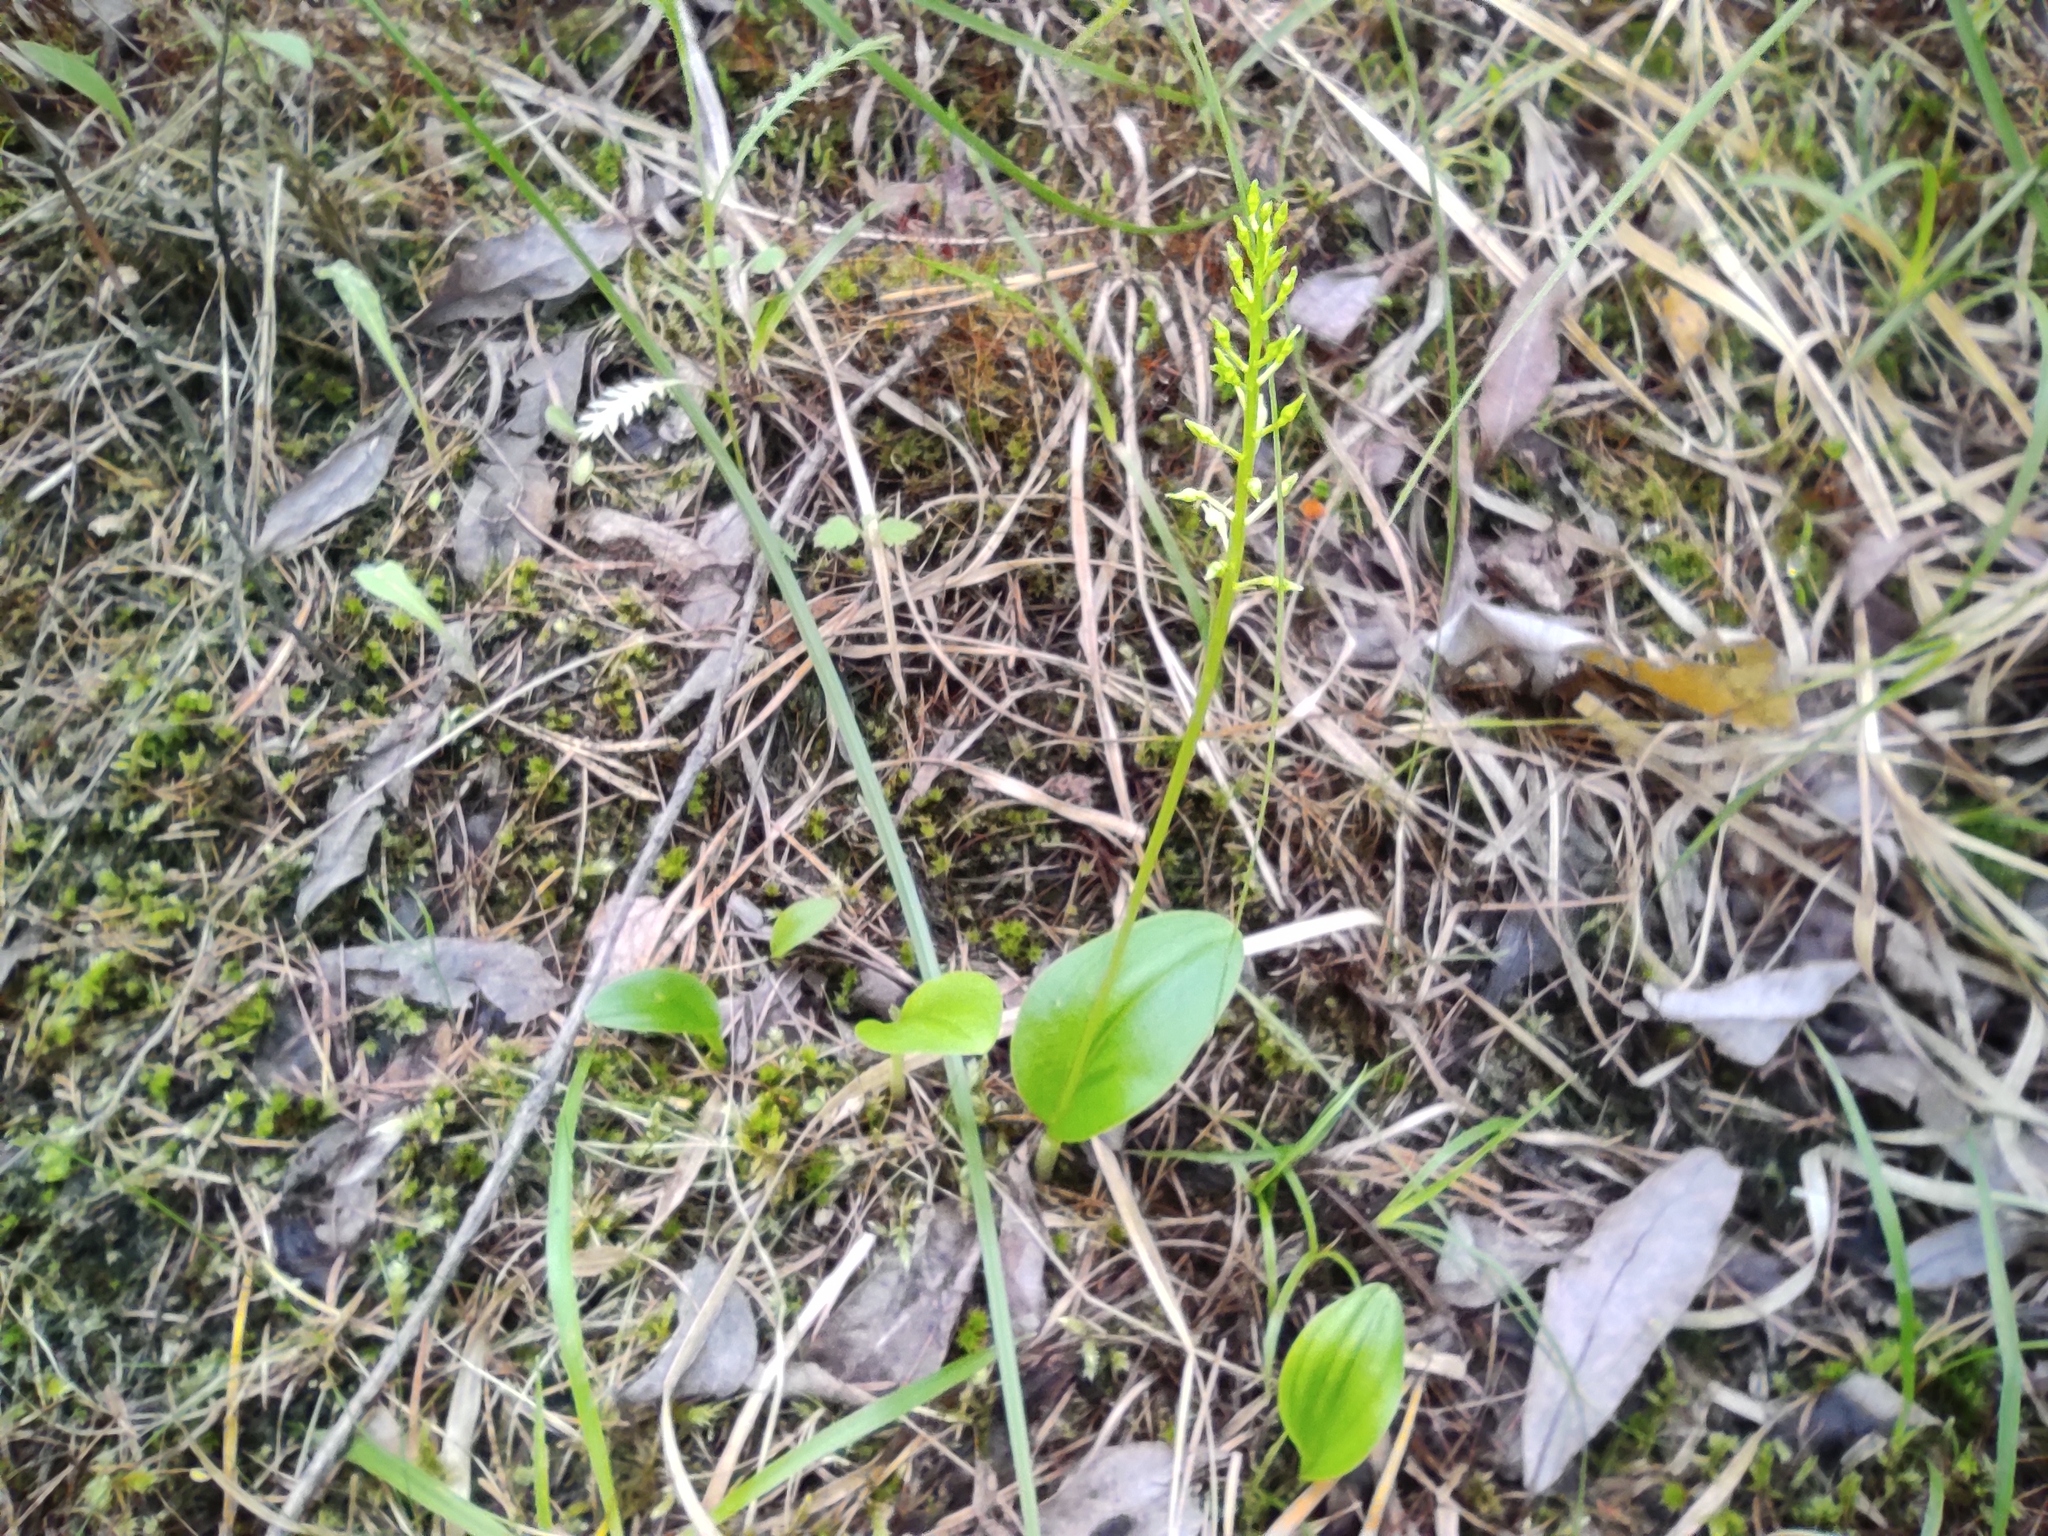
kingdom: Plantae
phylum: Tracheophyta
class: Liliopsida
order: Asparagales
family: Orchidaceae
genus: Malaxis
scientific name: Malaxis monophyllos
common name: White adder's-mouth
